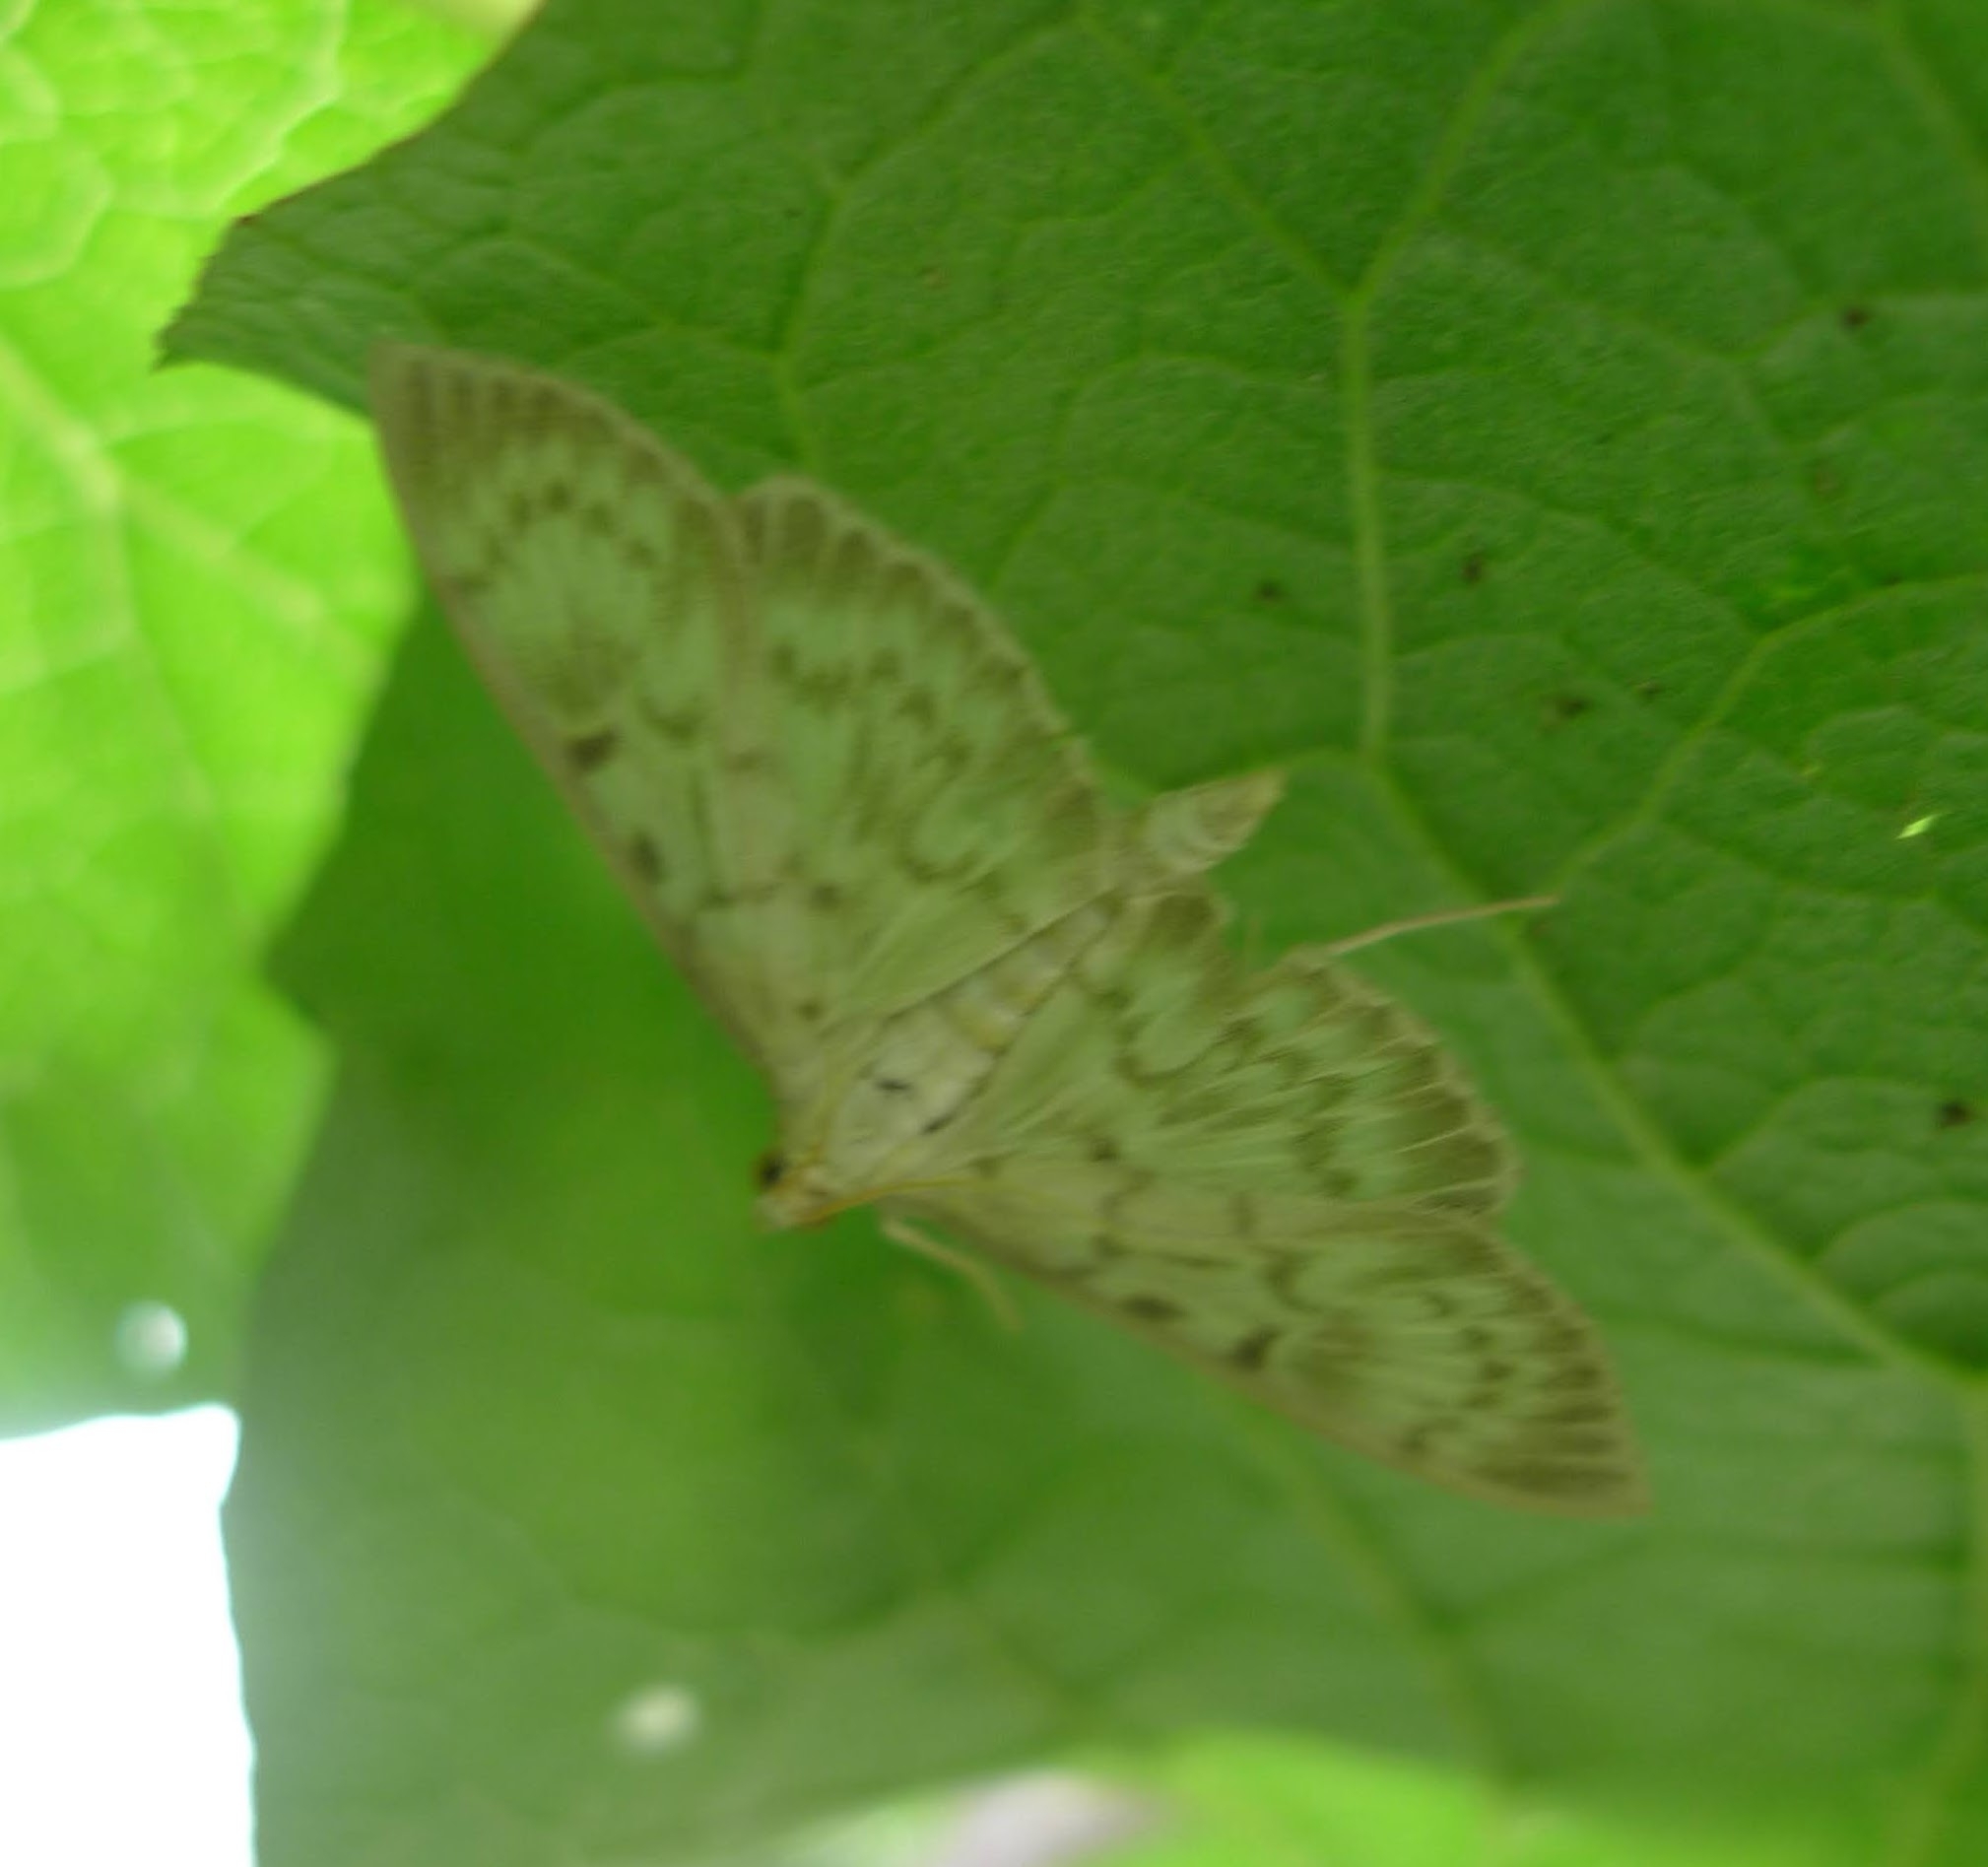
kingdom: Animalia
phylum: Arthropoda
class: Insecta
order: Lepidoptera
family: Crambidae
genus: Patania
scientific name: Patania ruralis
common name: Mother of pearl
